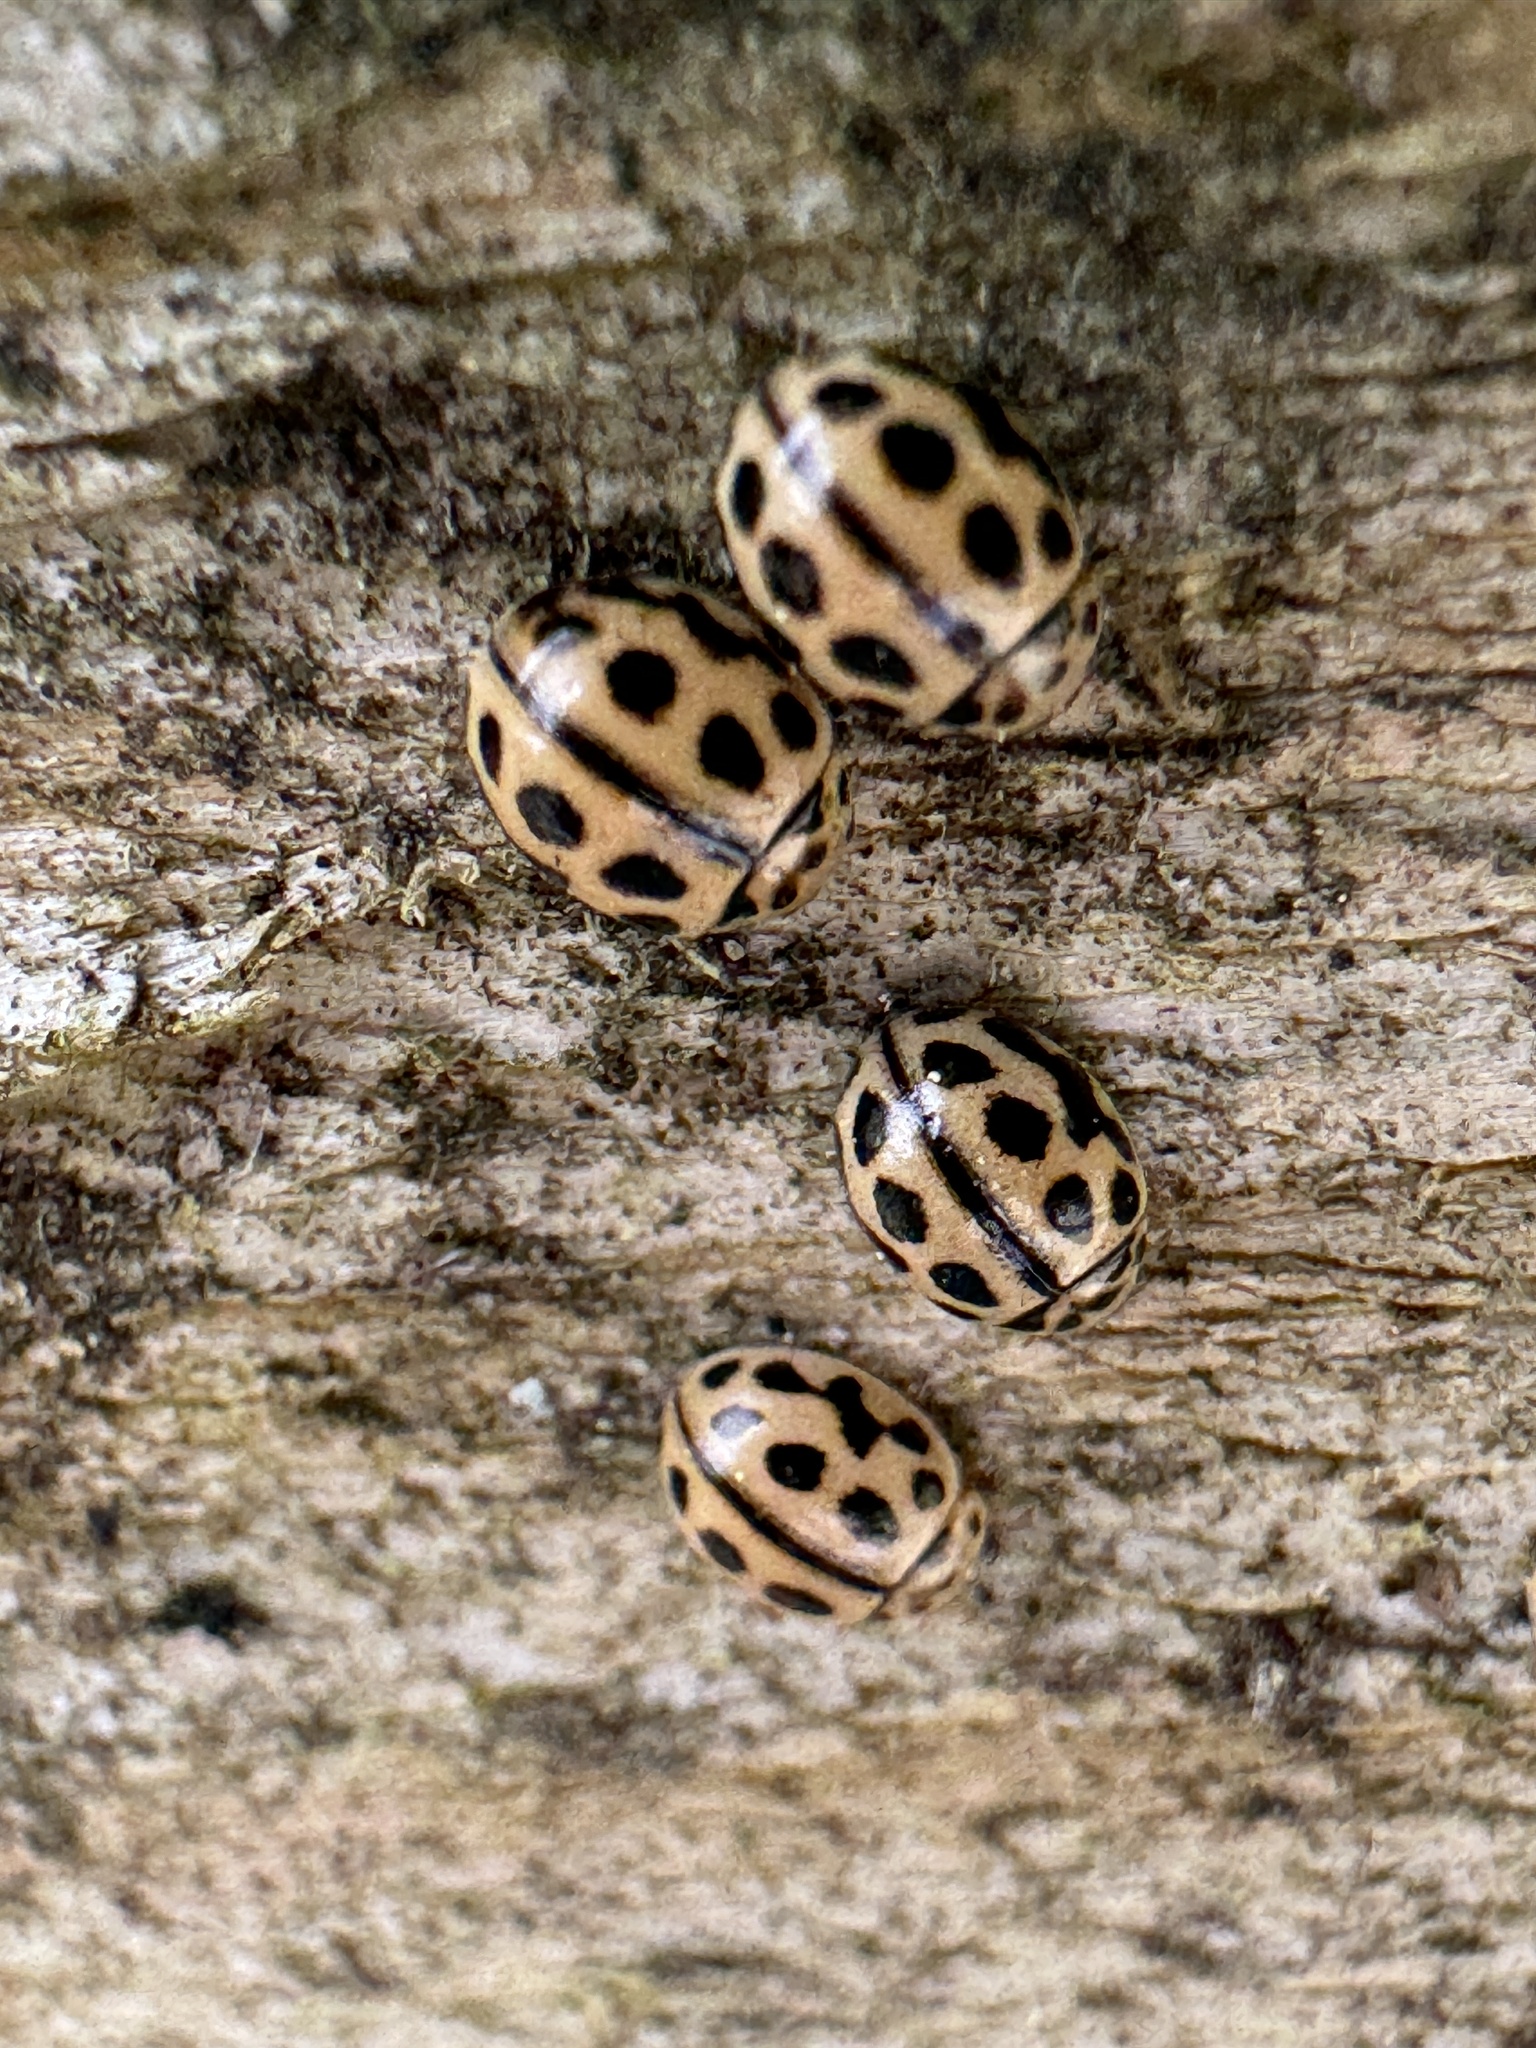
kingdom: Animalia
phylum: Arthropoda
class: Insecta
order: Coleoptera
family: Coccinellidae
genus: Tytthaspis
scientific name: Tytthaspis sedecimpunctata
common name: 16-spot ladybird
